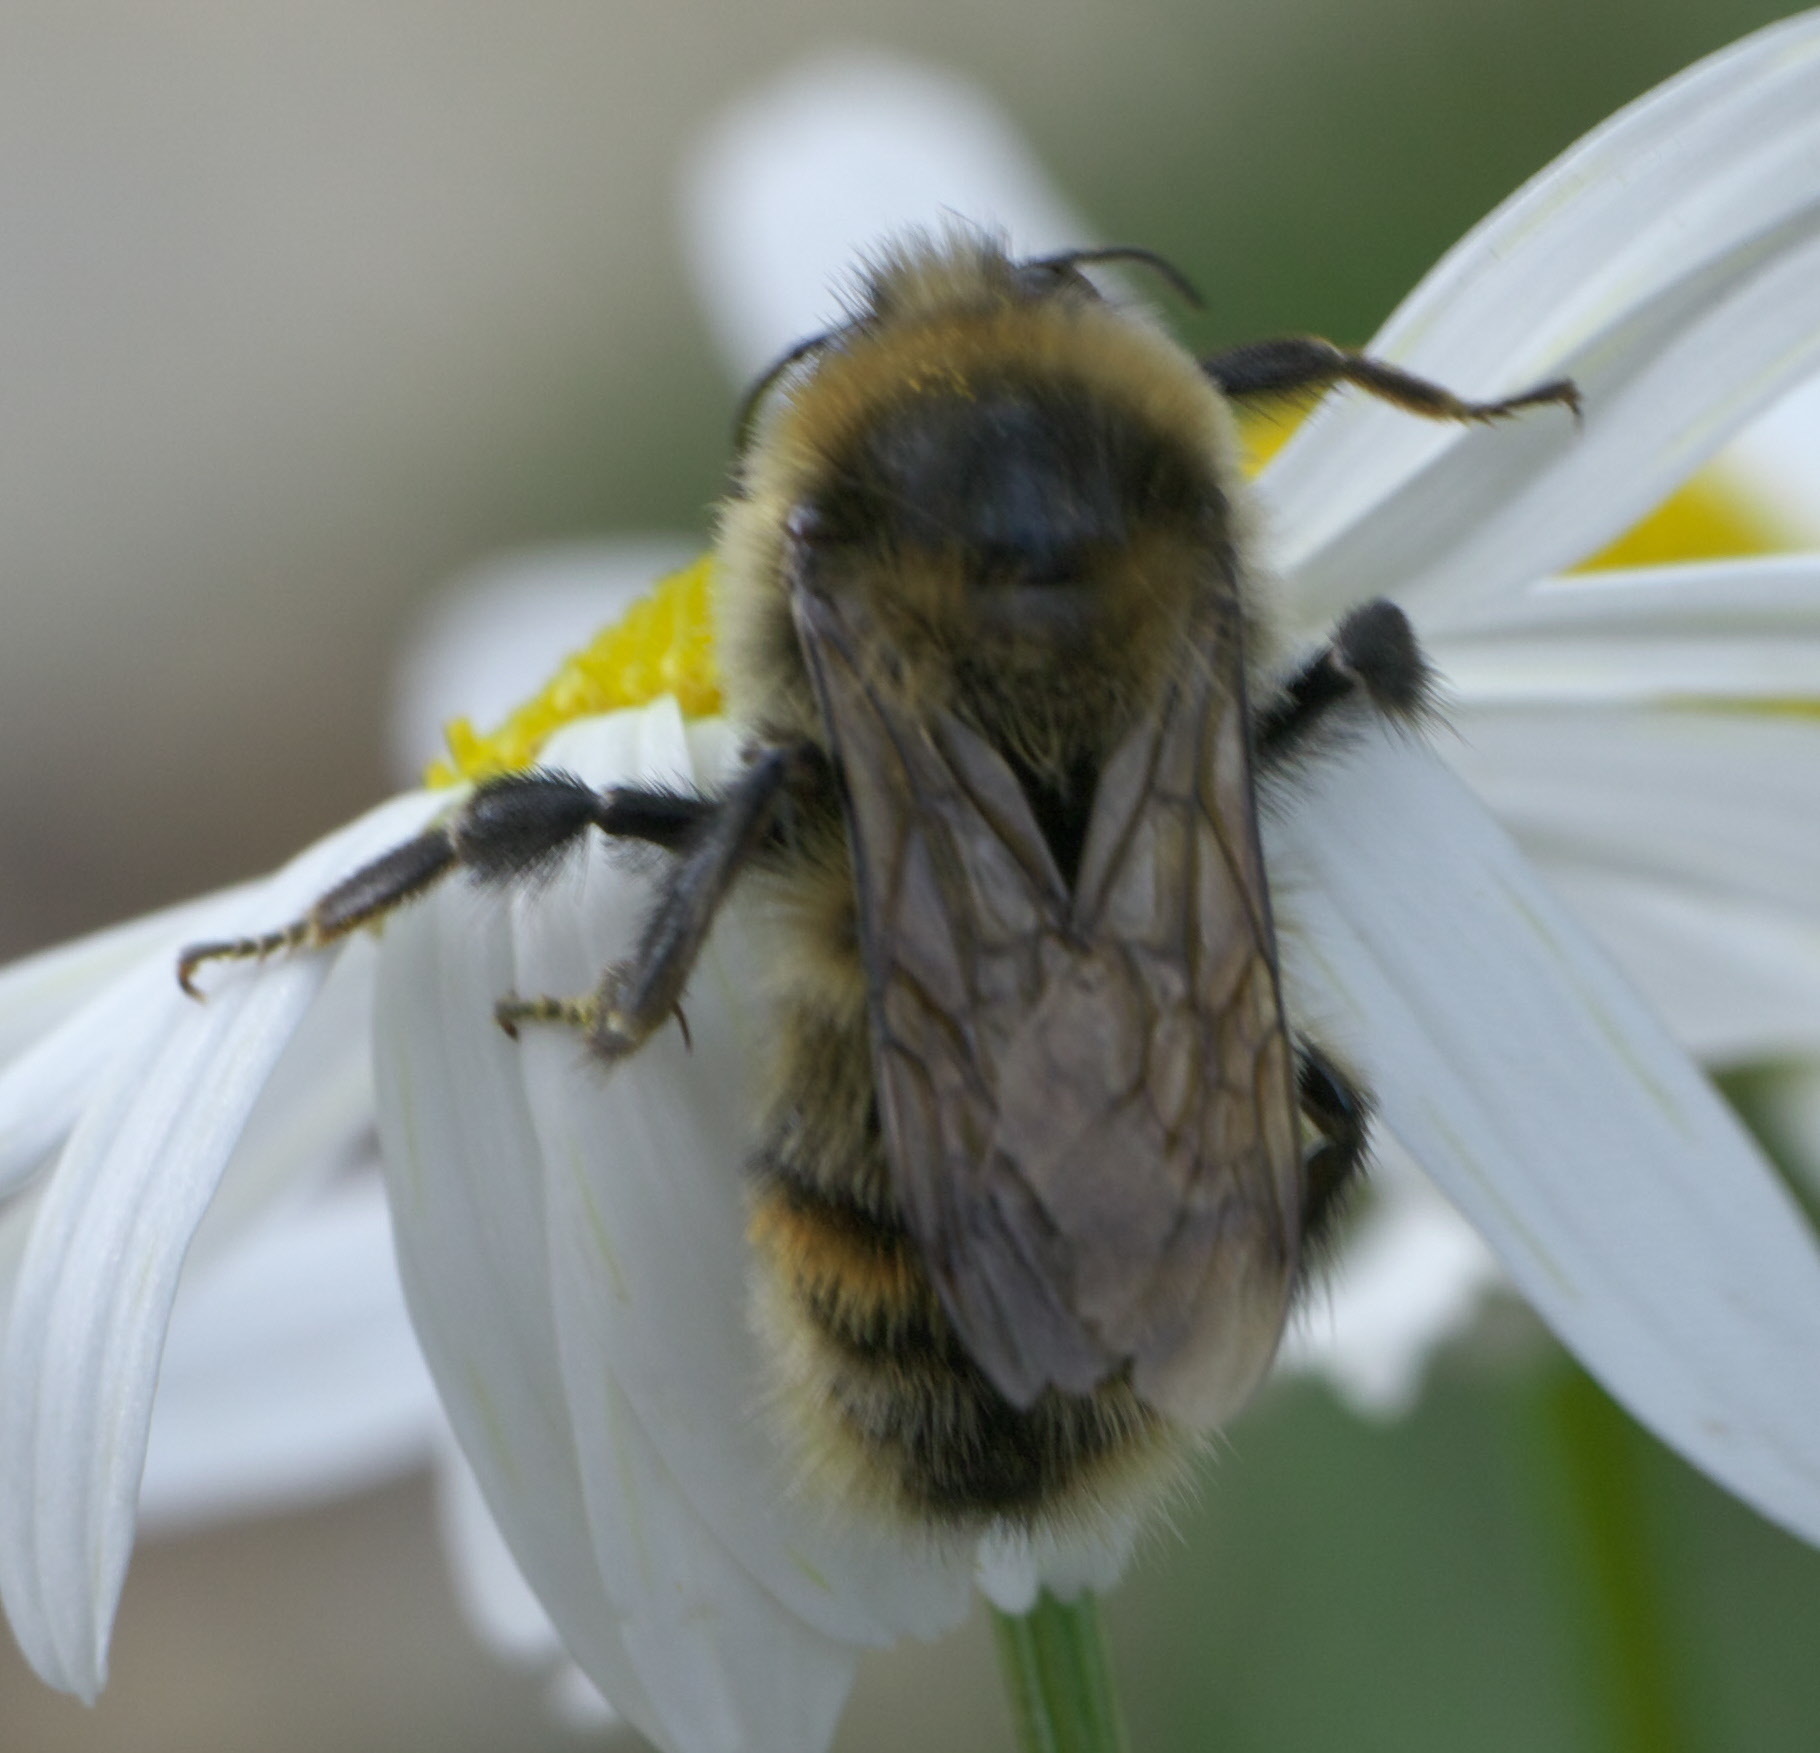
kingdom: Animalia
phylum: Arthropoda
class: Insecta
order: Hymenoptera
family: Apidae
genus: Bombus
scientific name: Bombus rufocinctus
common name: Red-belted bumble bee
